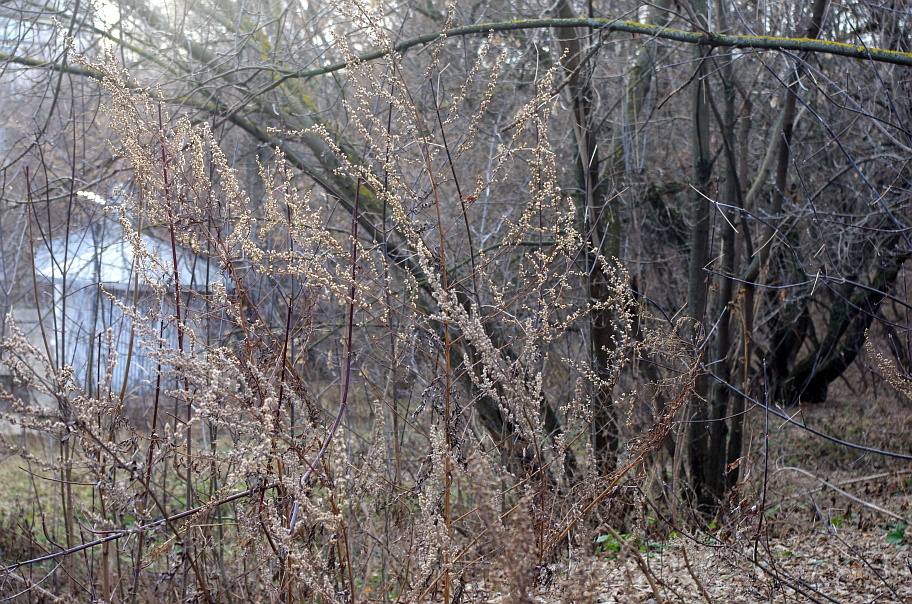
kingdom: Plantae
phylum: Tracheophyta
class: Magnoliopsida
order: Asterales
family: Asteraceae
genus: Artemisia
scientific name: Artemisia vulgaris
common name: Mugwort
